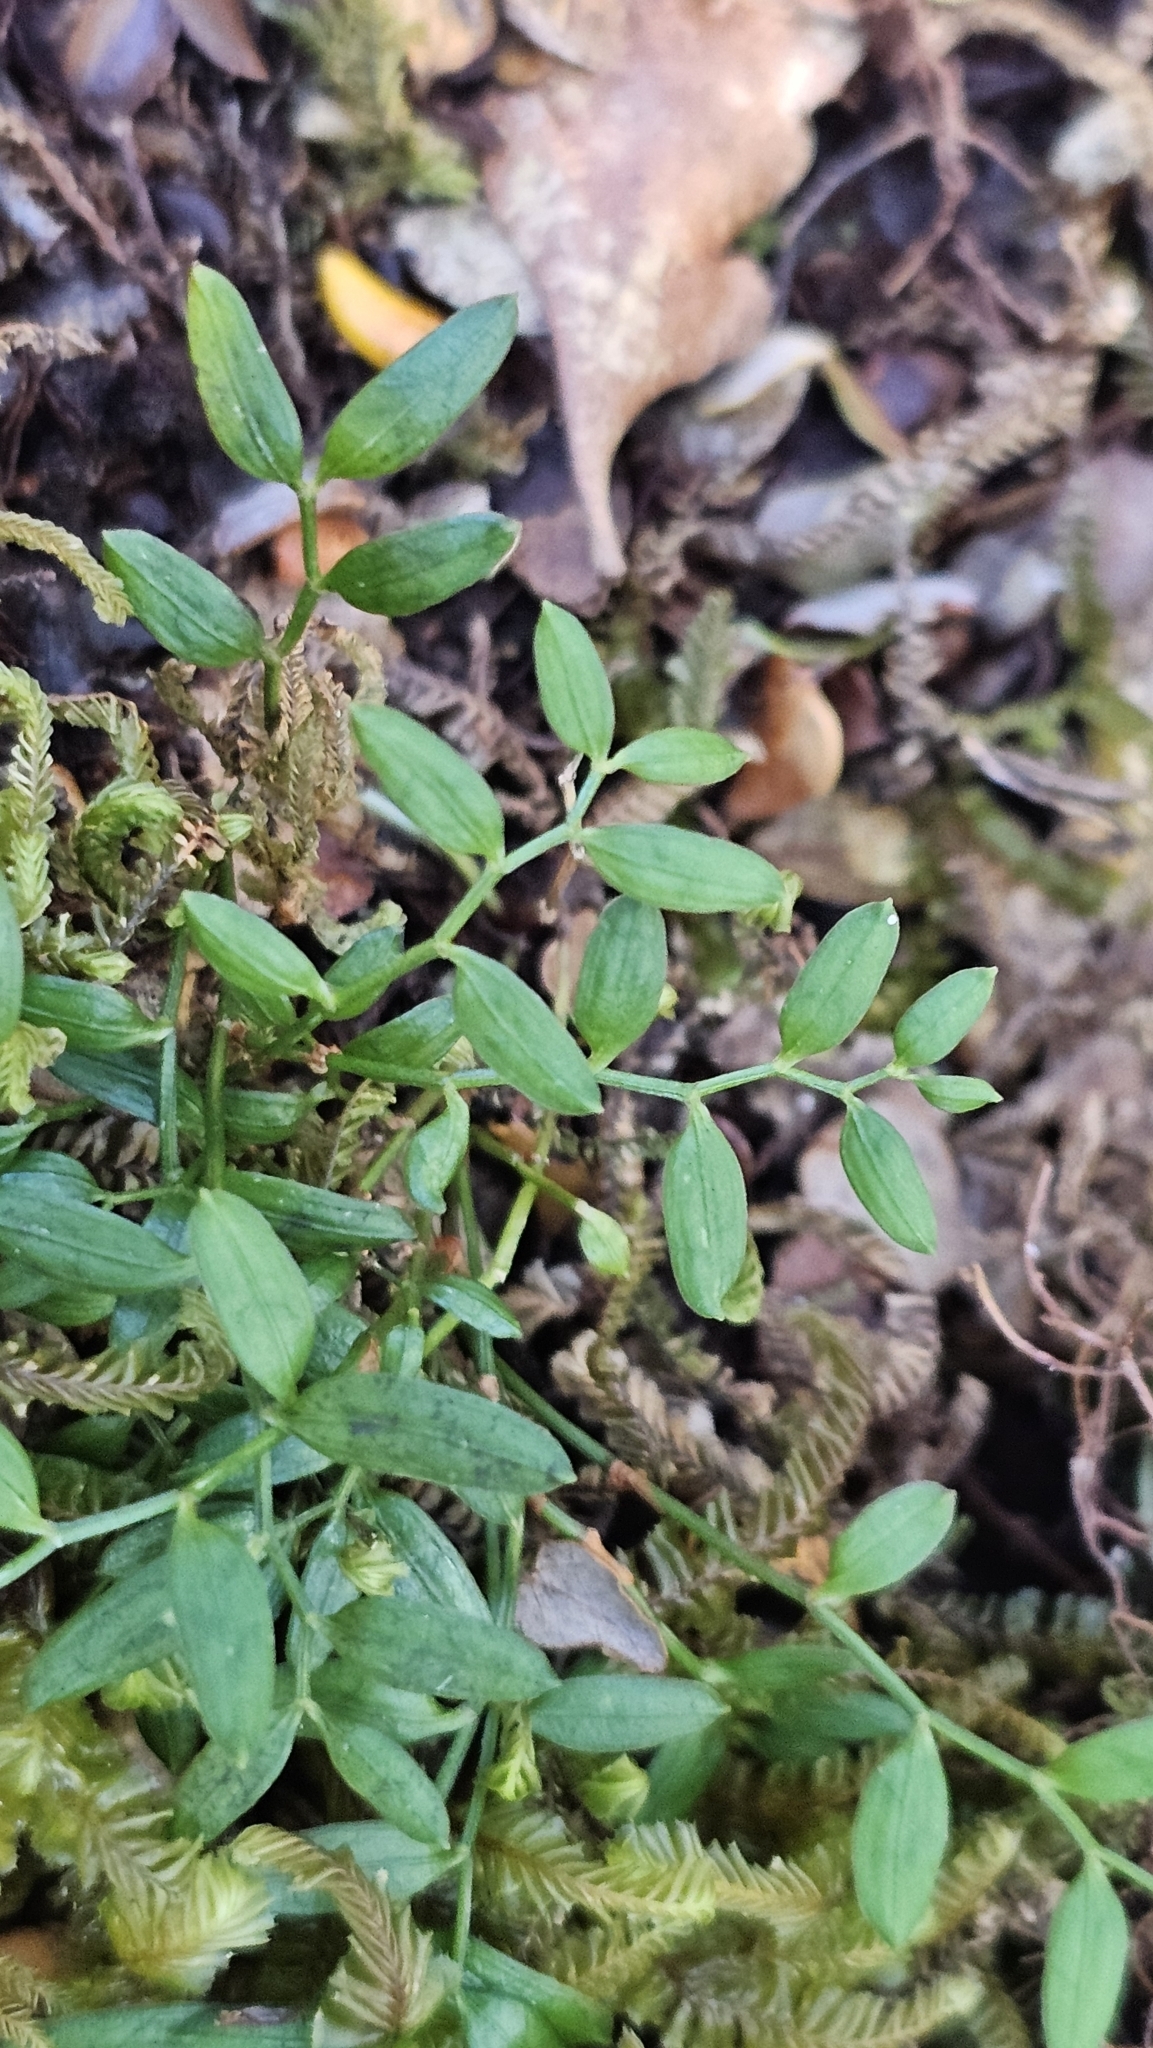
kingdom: Plantae
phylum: Tracheophyta
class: Liliopsida
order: Liliales
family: Alstroemeriaceae
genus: Luzuriaga
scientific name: Luzuriaga parviflora
